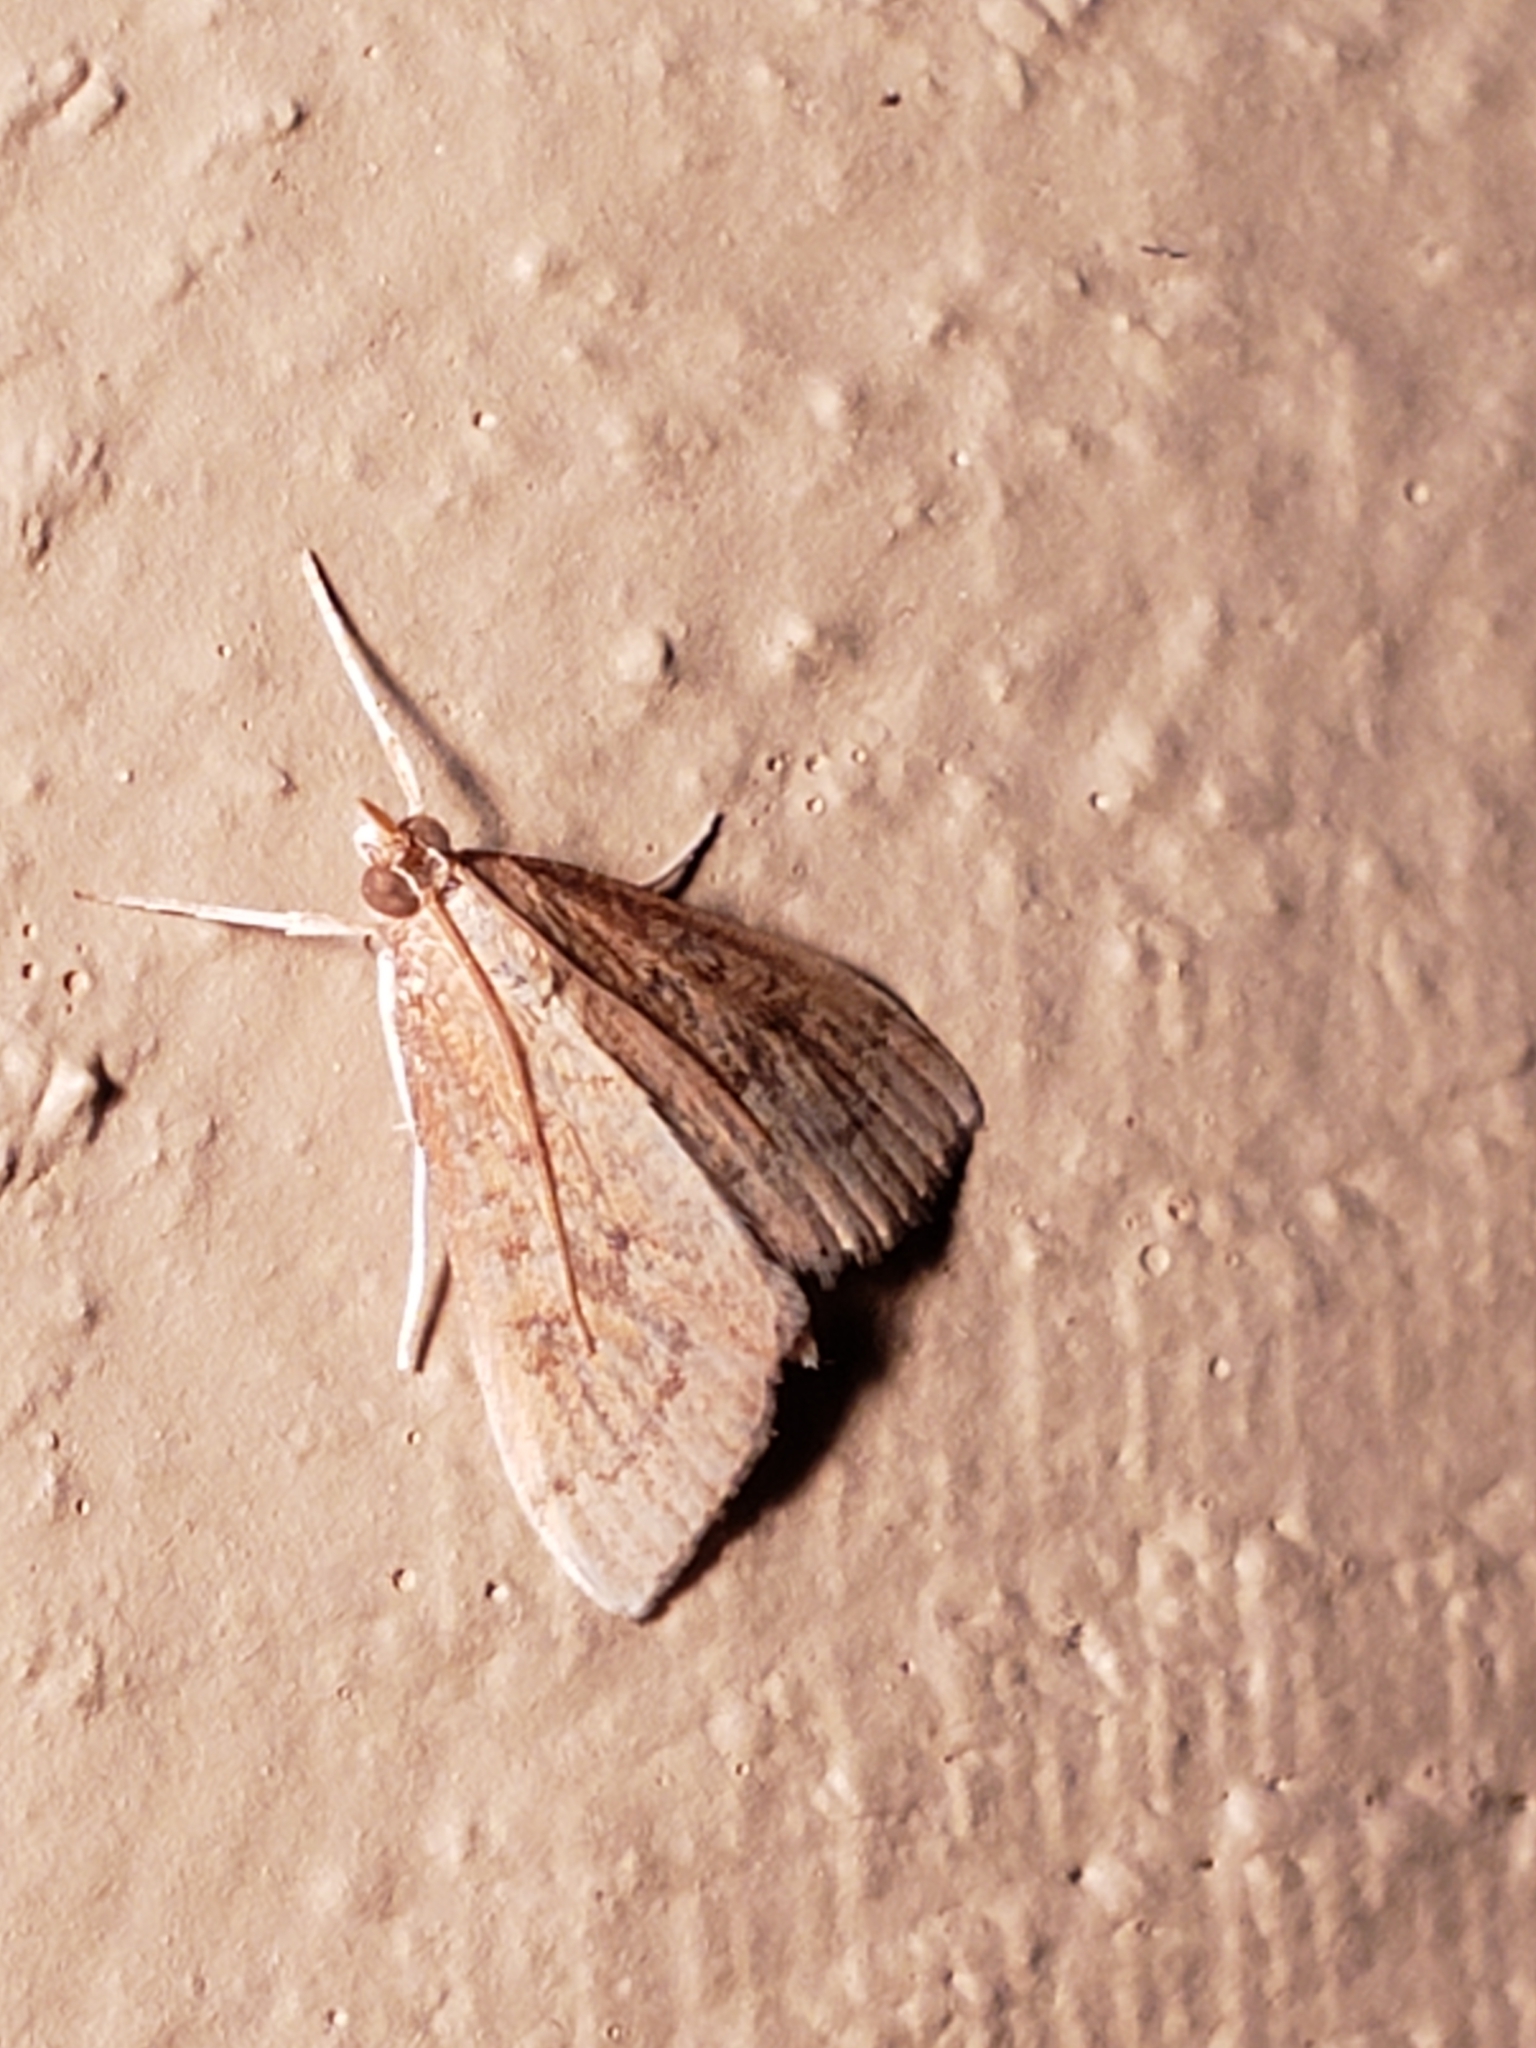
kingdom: Animalia
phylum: Arthropoda
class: Insecta
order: Lepidoptera
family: Crambidae
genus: Udea
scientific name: Udea rubigalis
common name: Celery leaftier moth
